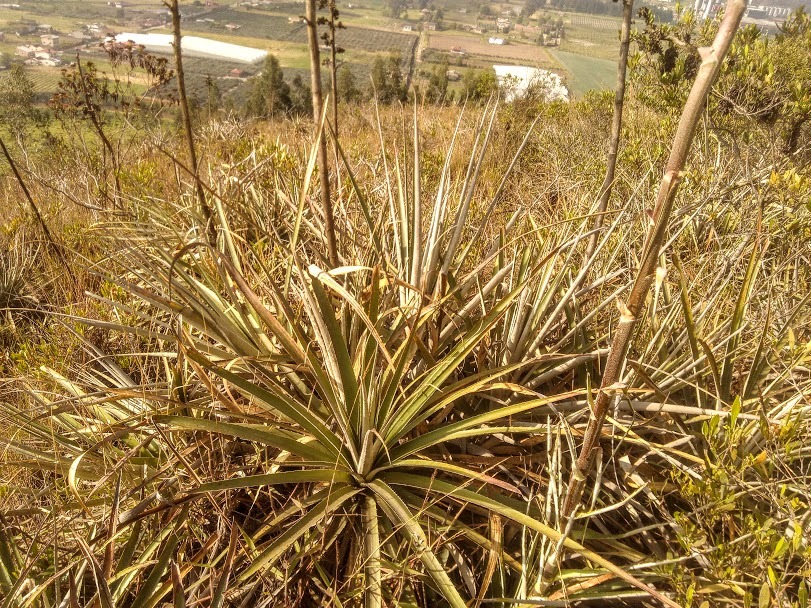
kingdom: Plantae
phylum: Tracheophyta
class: Liliopsida
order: Poales
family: Bromeliaceae
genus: Puya
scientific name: Puya bicolor
